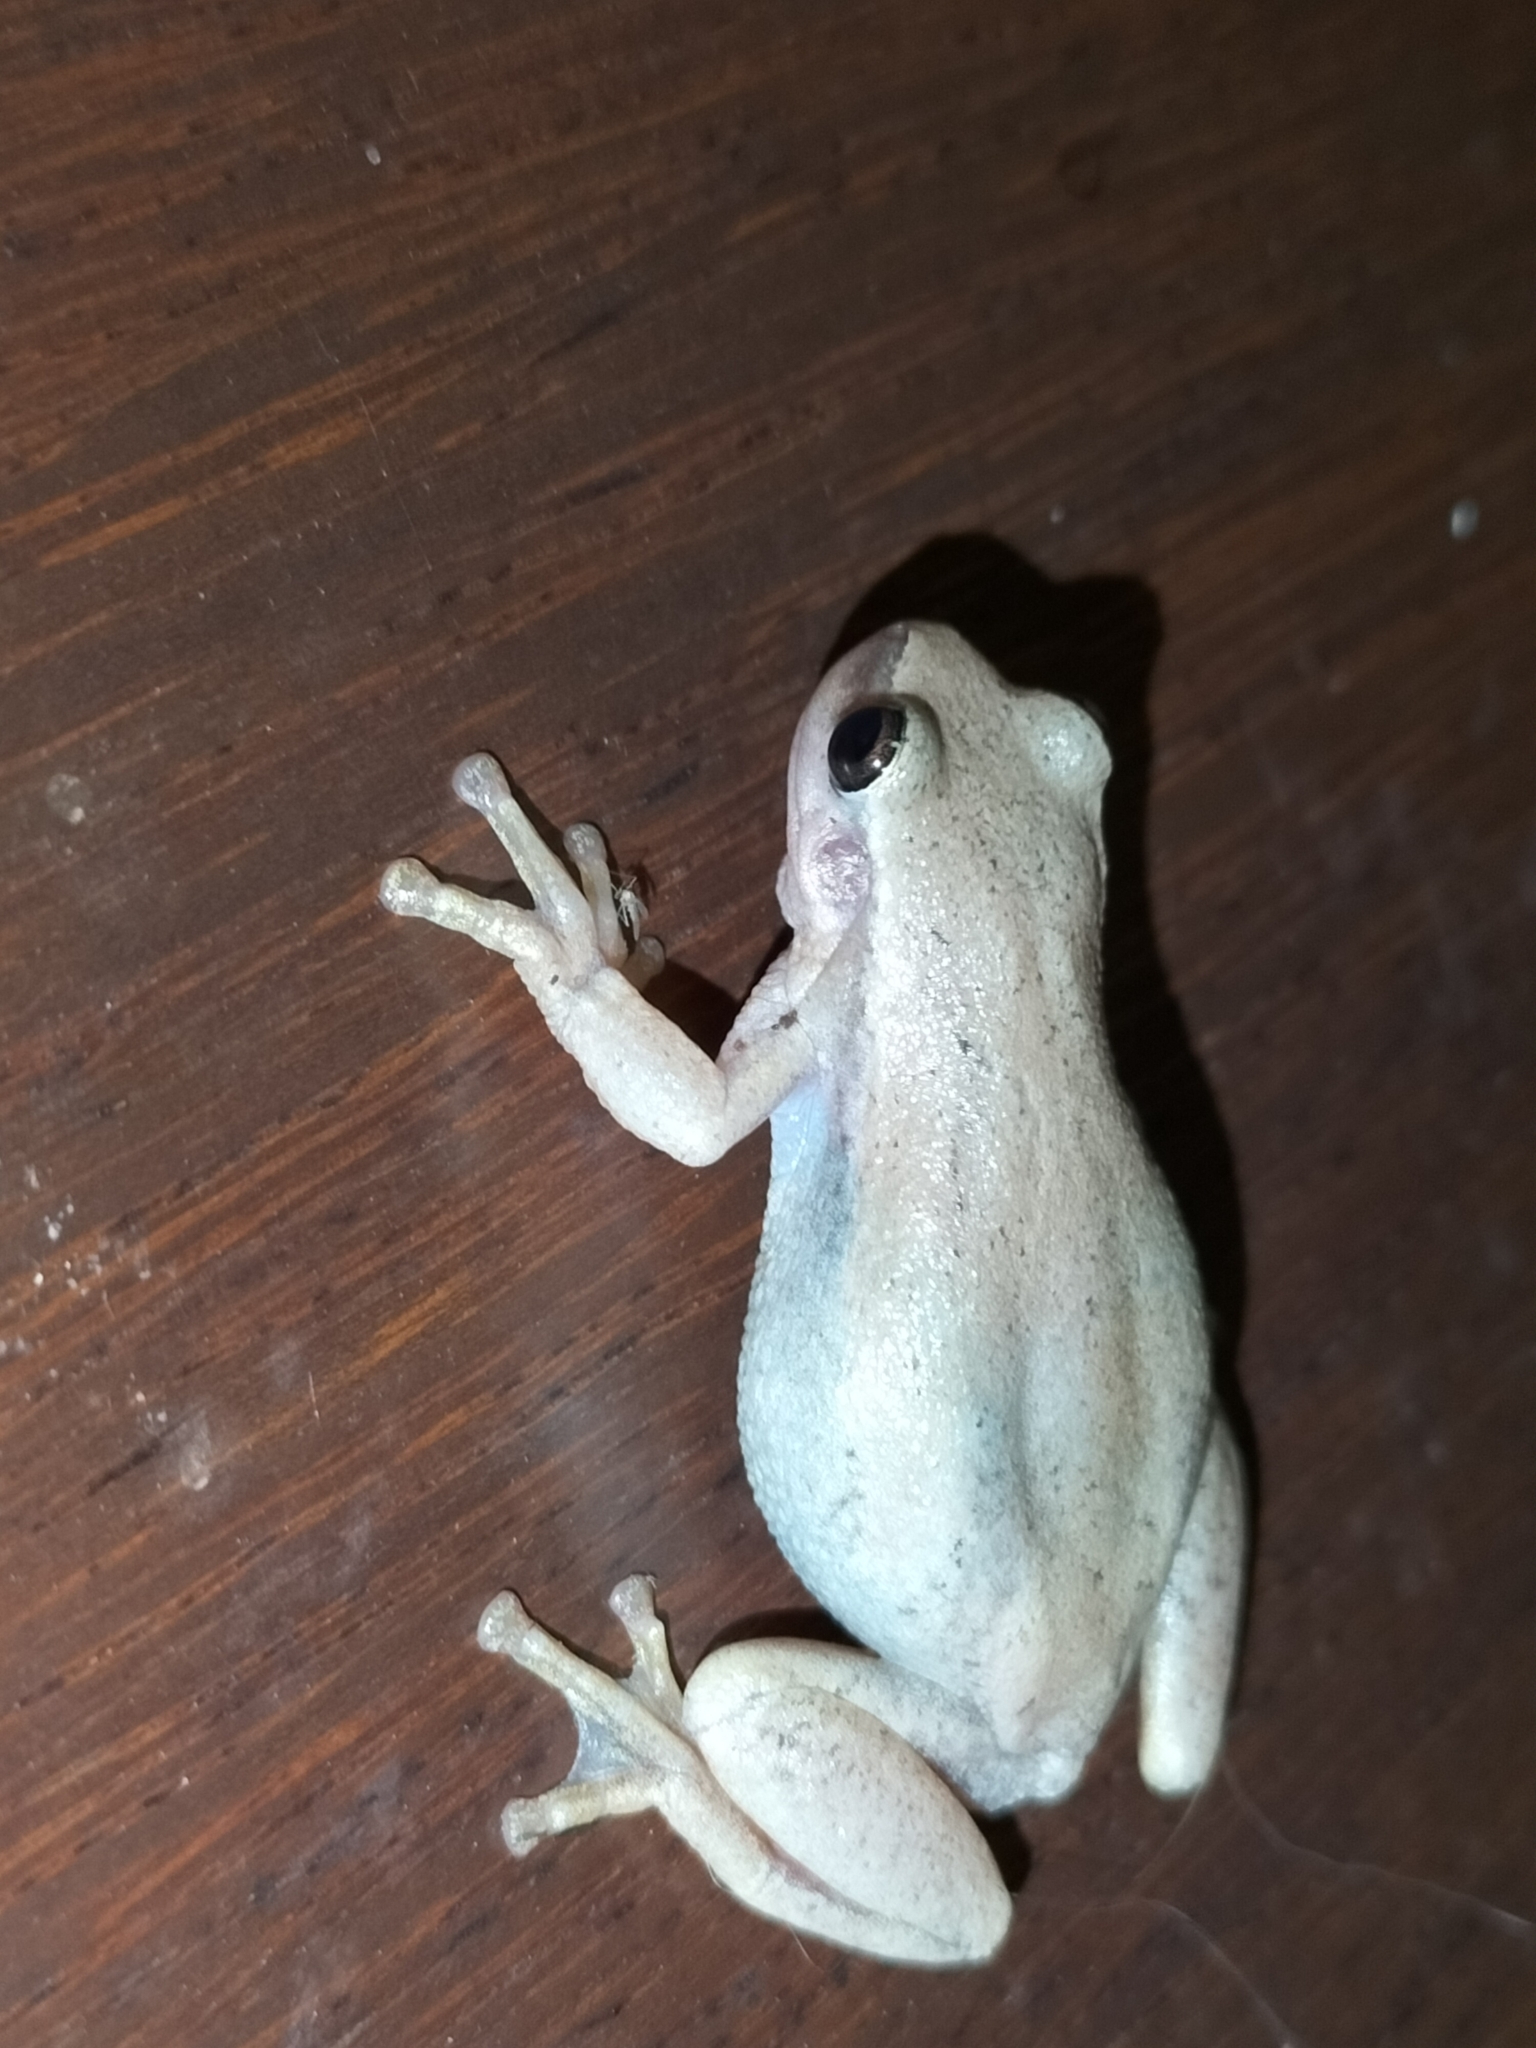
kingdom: Animalia
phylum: Chordata
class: Amphibia
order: Anura
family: Pelodryadidae
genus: Litoria
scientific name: Litoria rubella
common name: Desert tree frog
